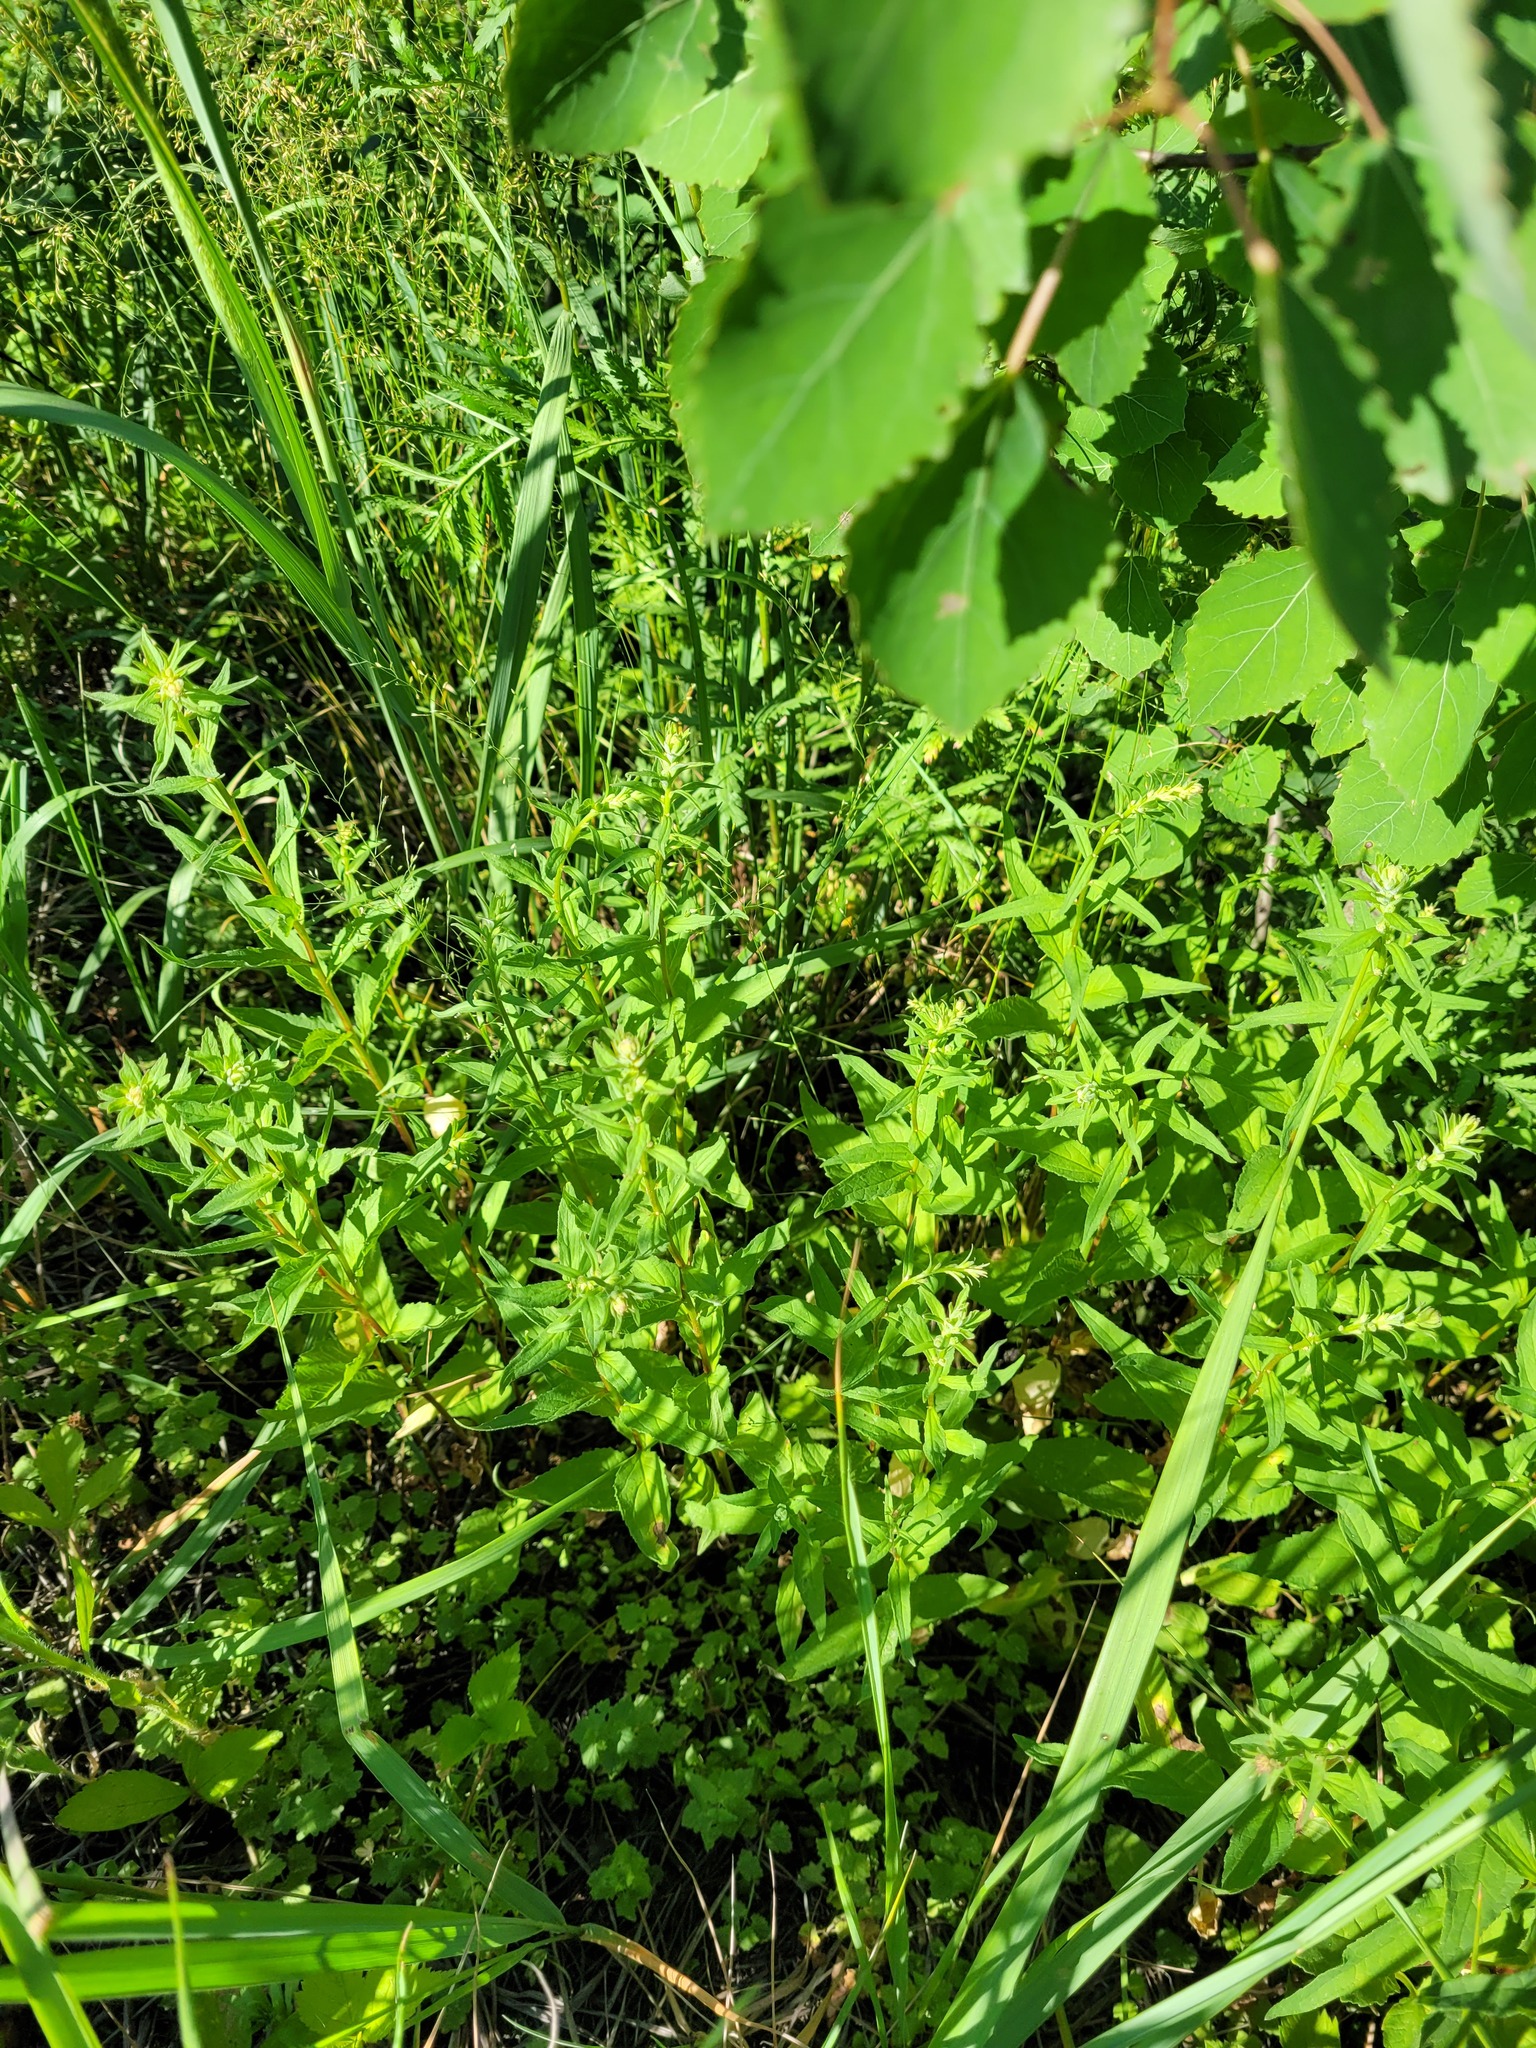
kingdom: Plantae
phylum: Tracheophyta
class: Magnoliopsida
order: Asterales
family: Campanulaceae
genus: Campanula
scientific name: Campanula rapunculoides
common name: Creeping bellflower
